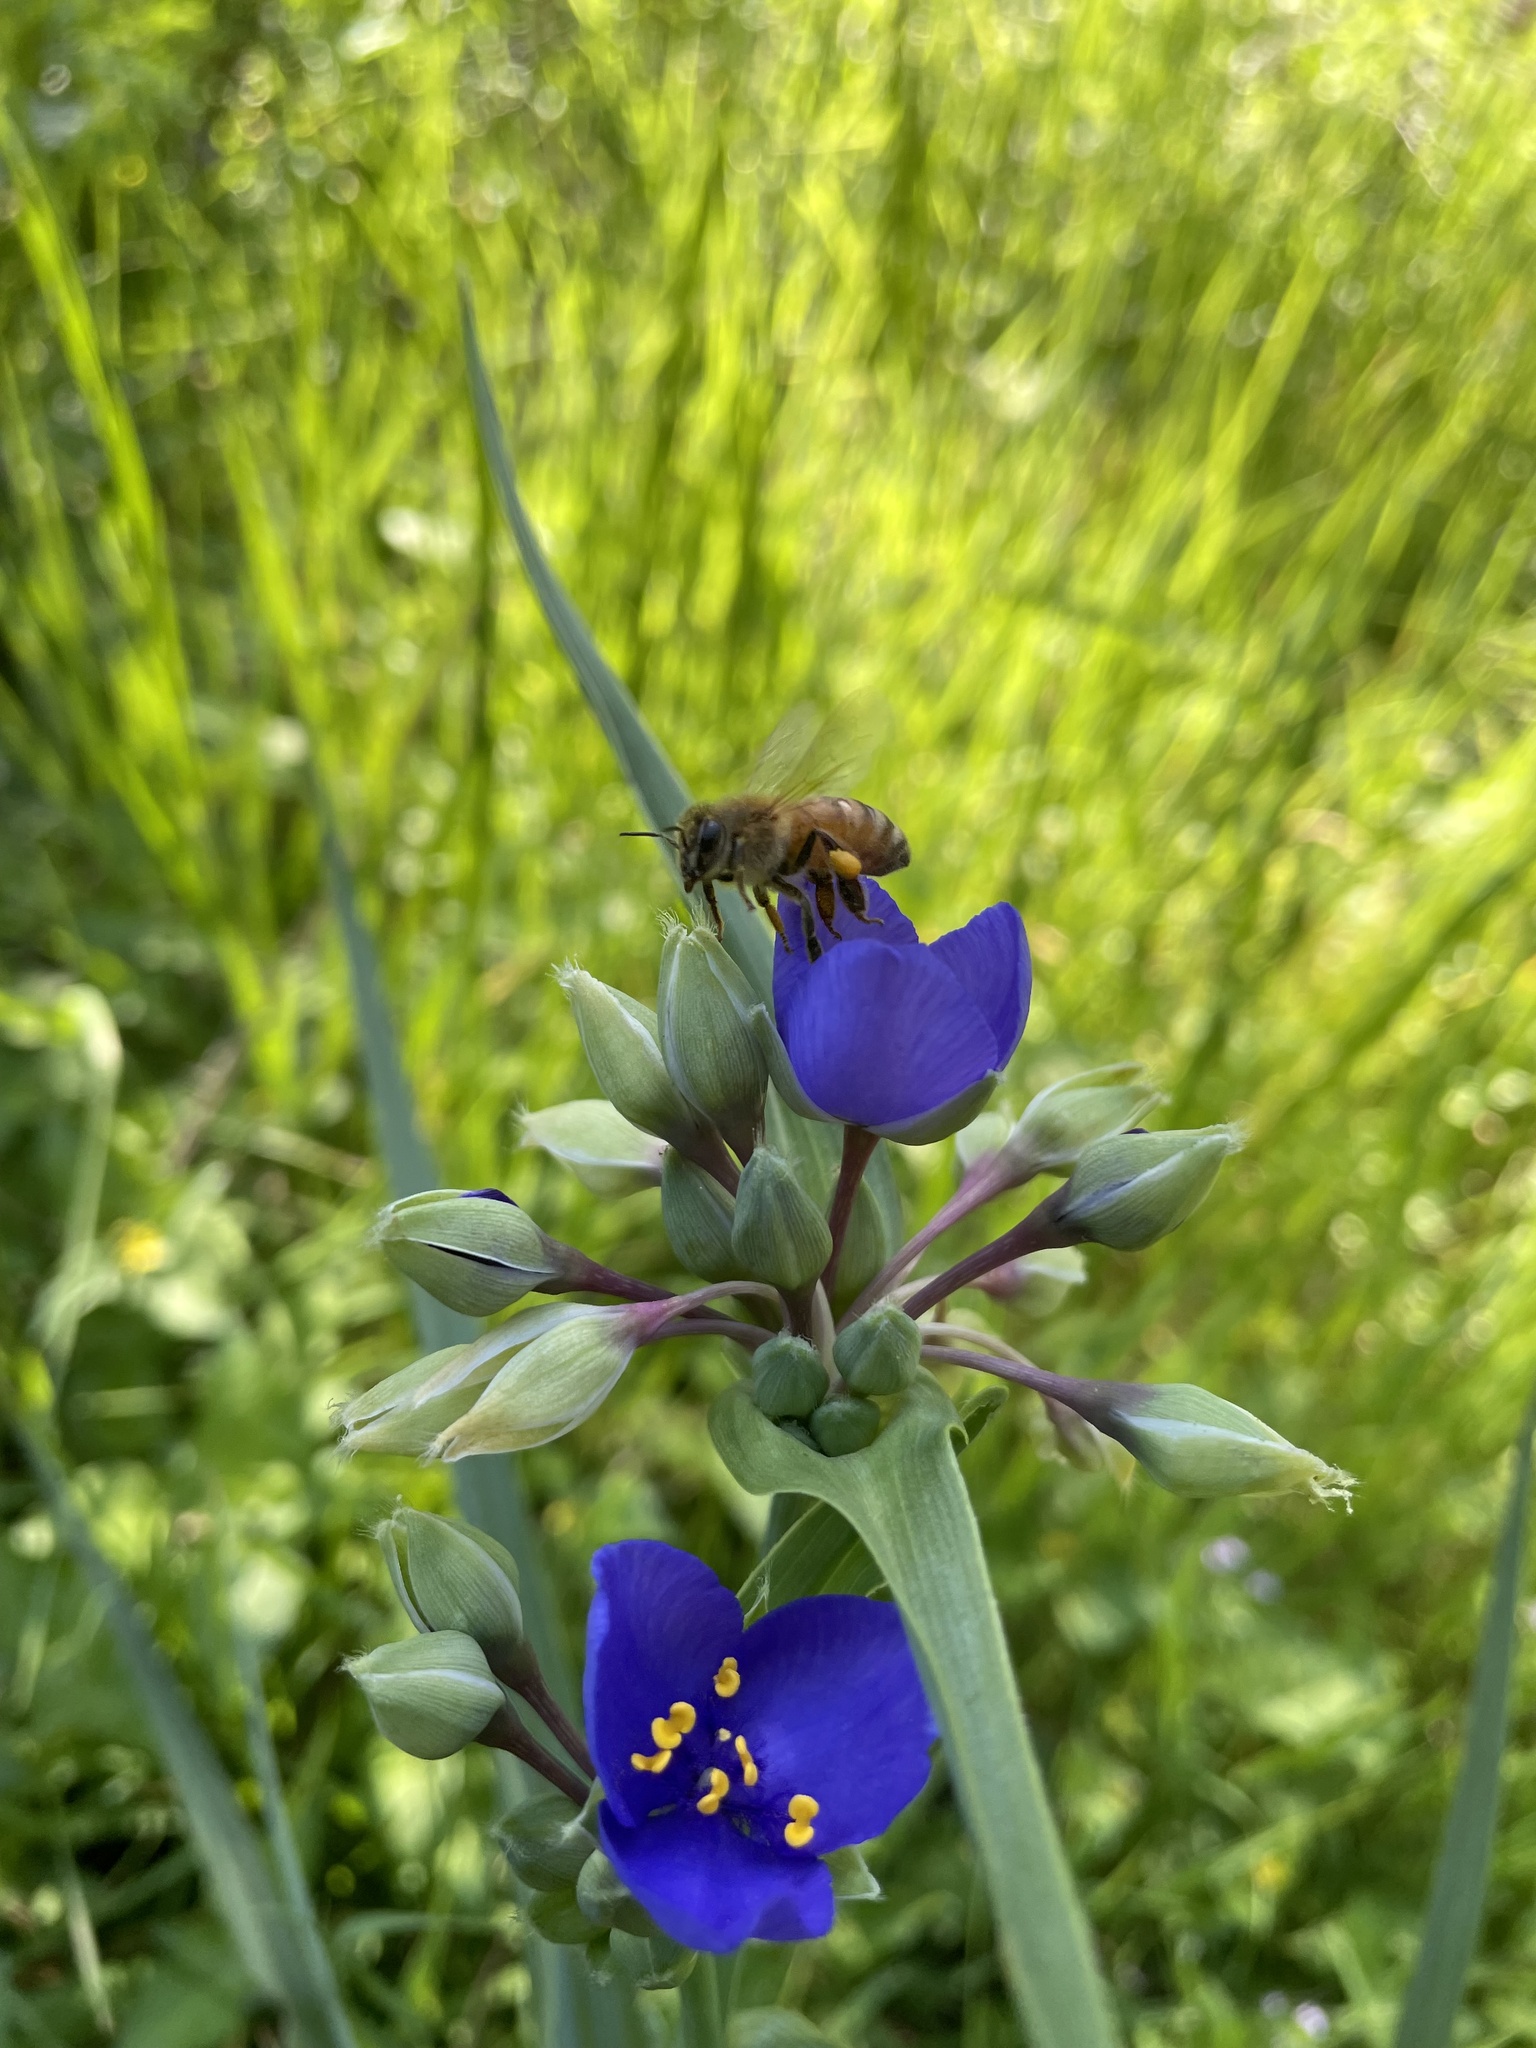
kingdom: Animalia
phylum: Arthropoda
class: Insecta
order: Hymenoptera
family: Apidae
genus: Apis
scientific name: Apis mellifera
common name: Honey bee
